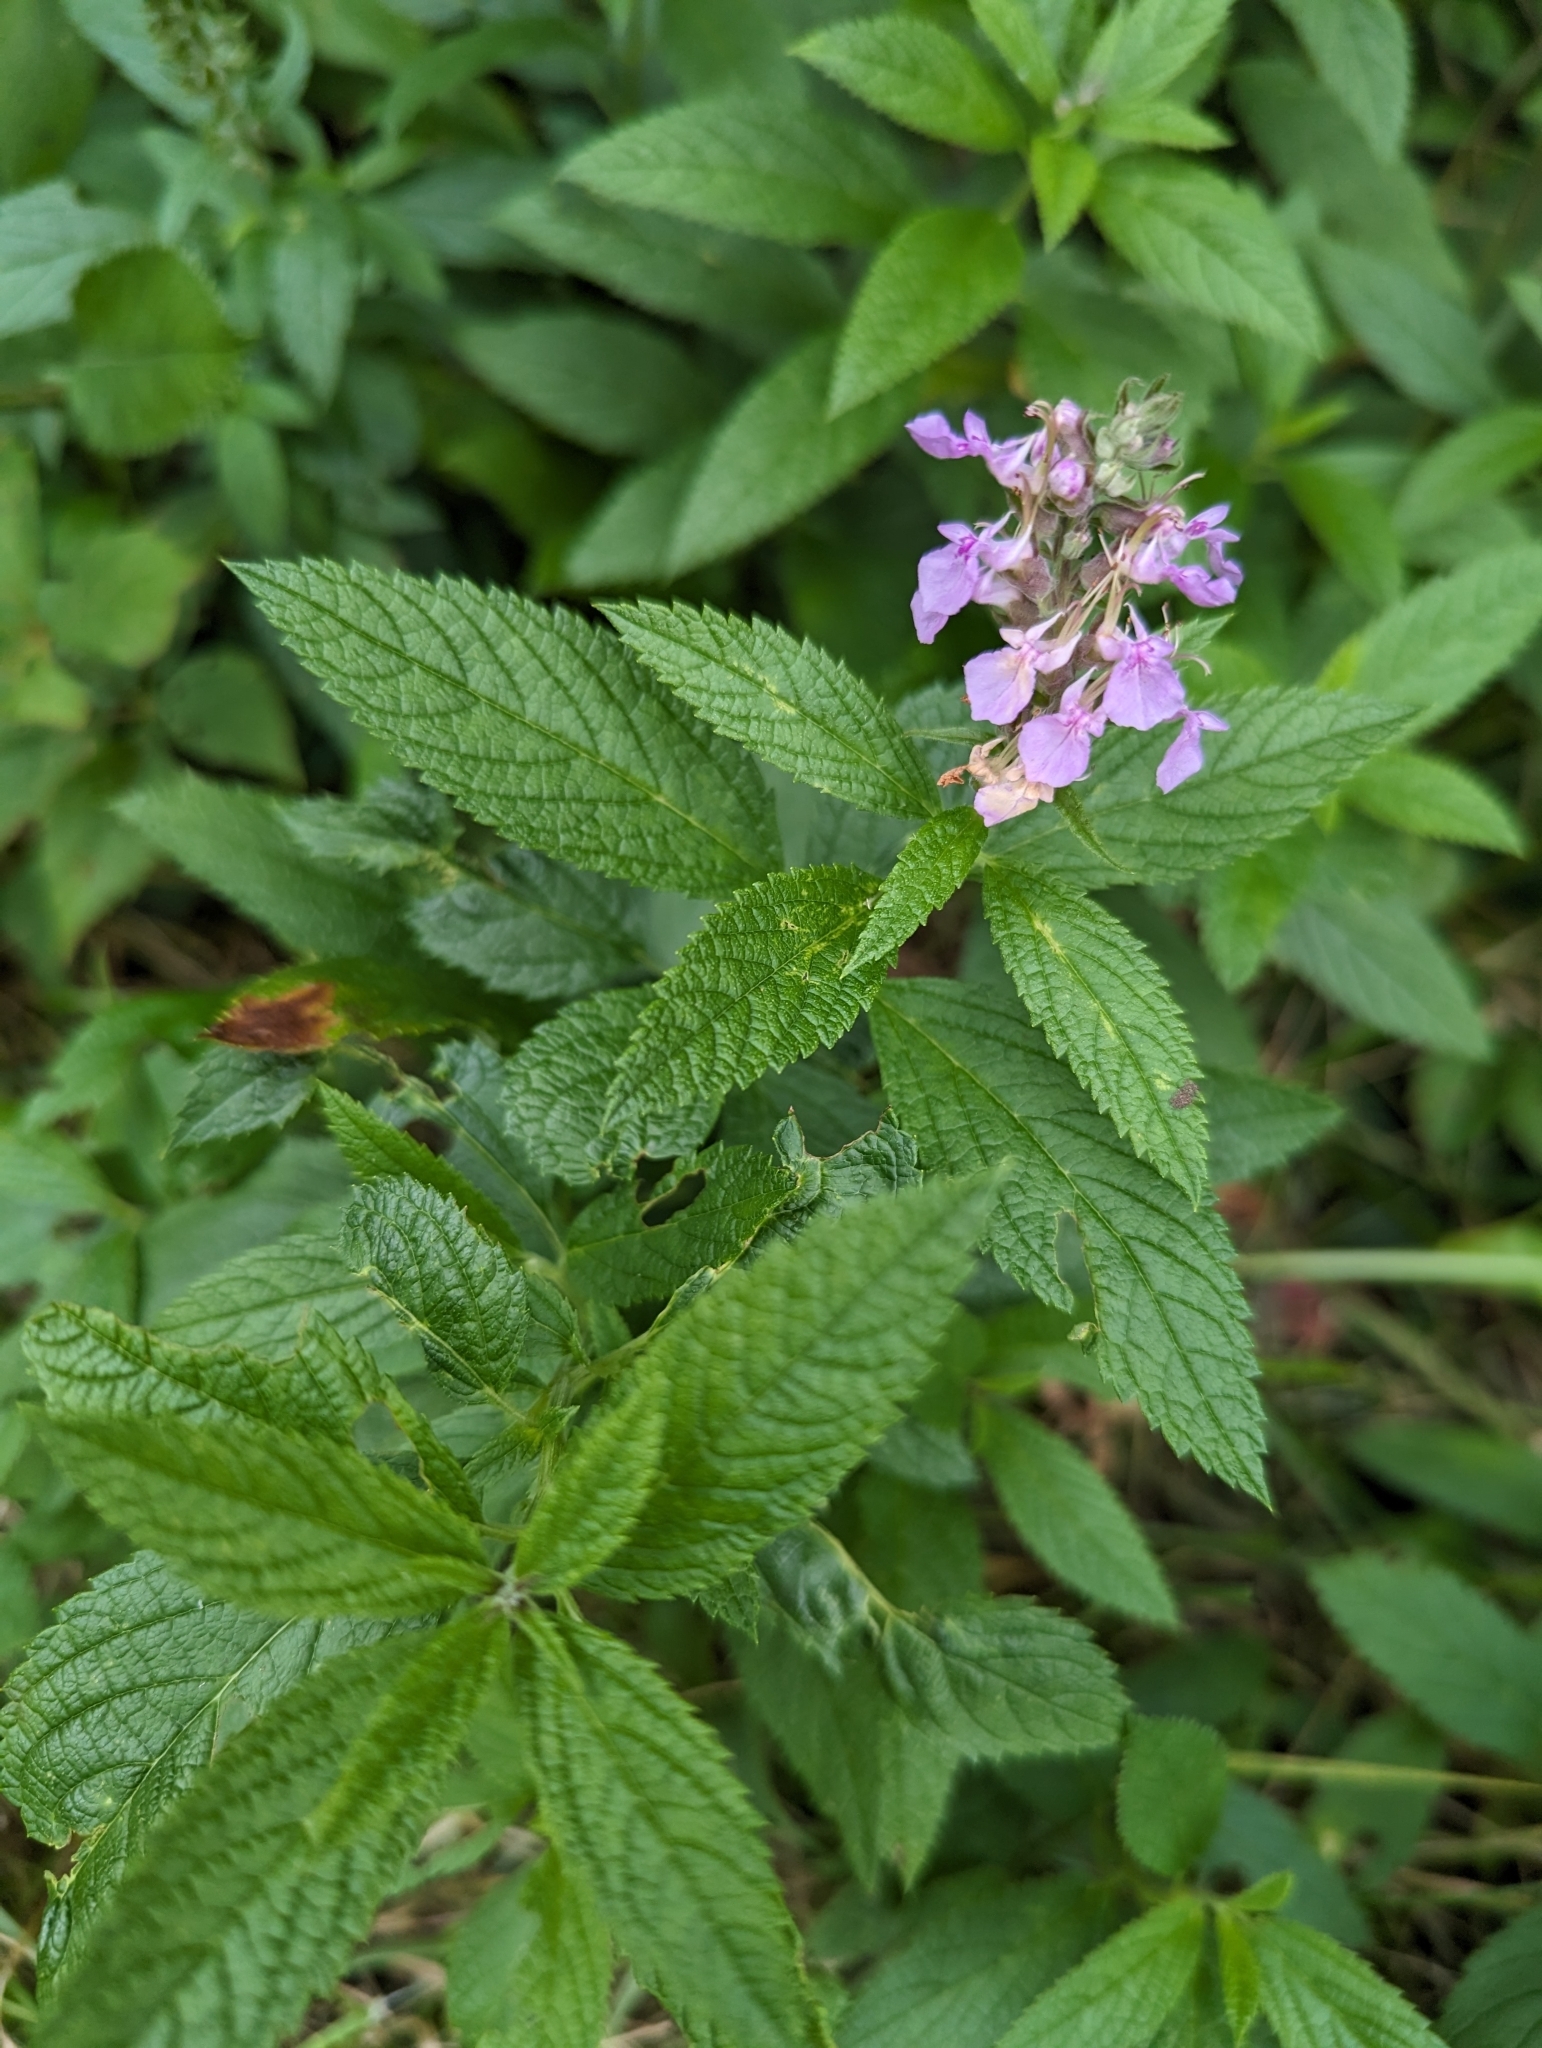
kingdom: Plantae
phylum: Tracheophyta
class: Magnoliopsida
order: Lamiales
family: Lamiaceae
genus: Teucrium
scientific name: Teucrium canadense
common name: American germander
